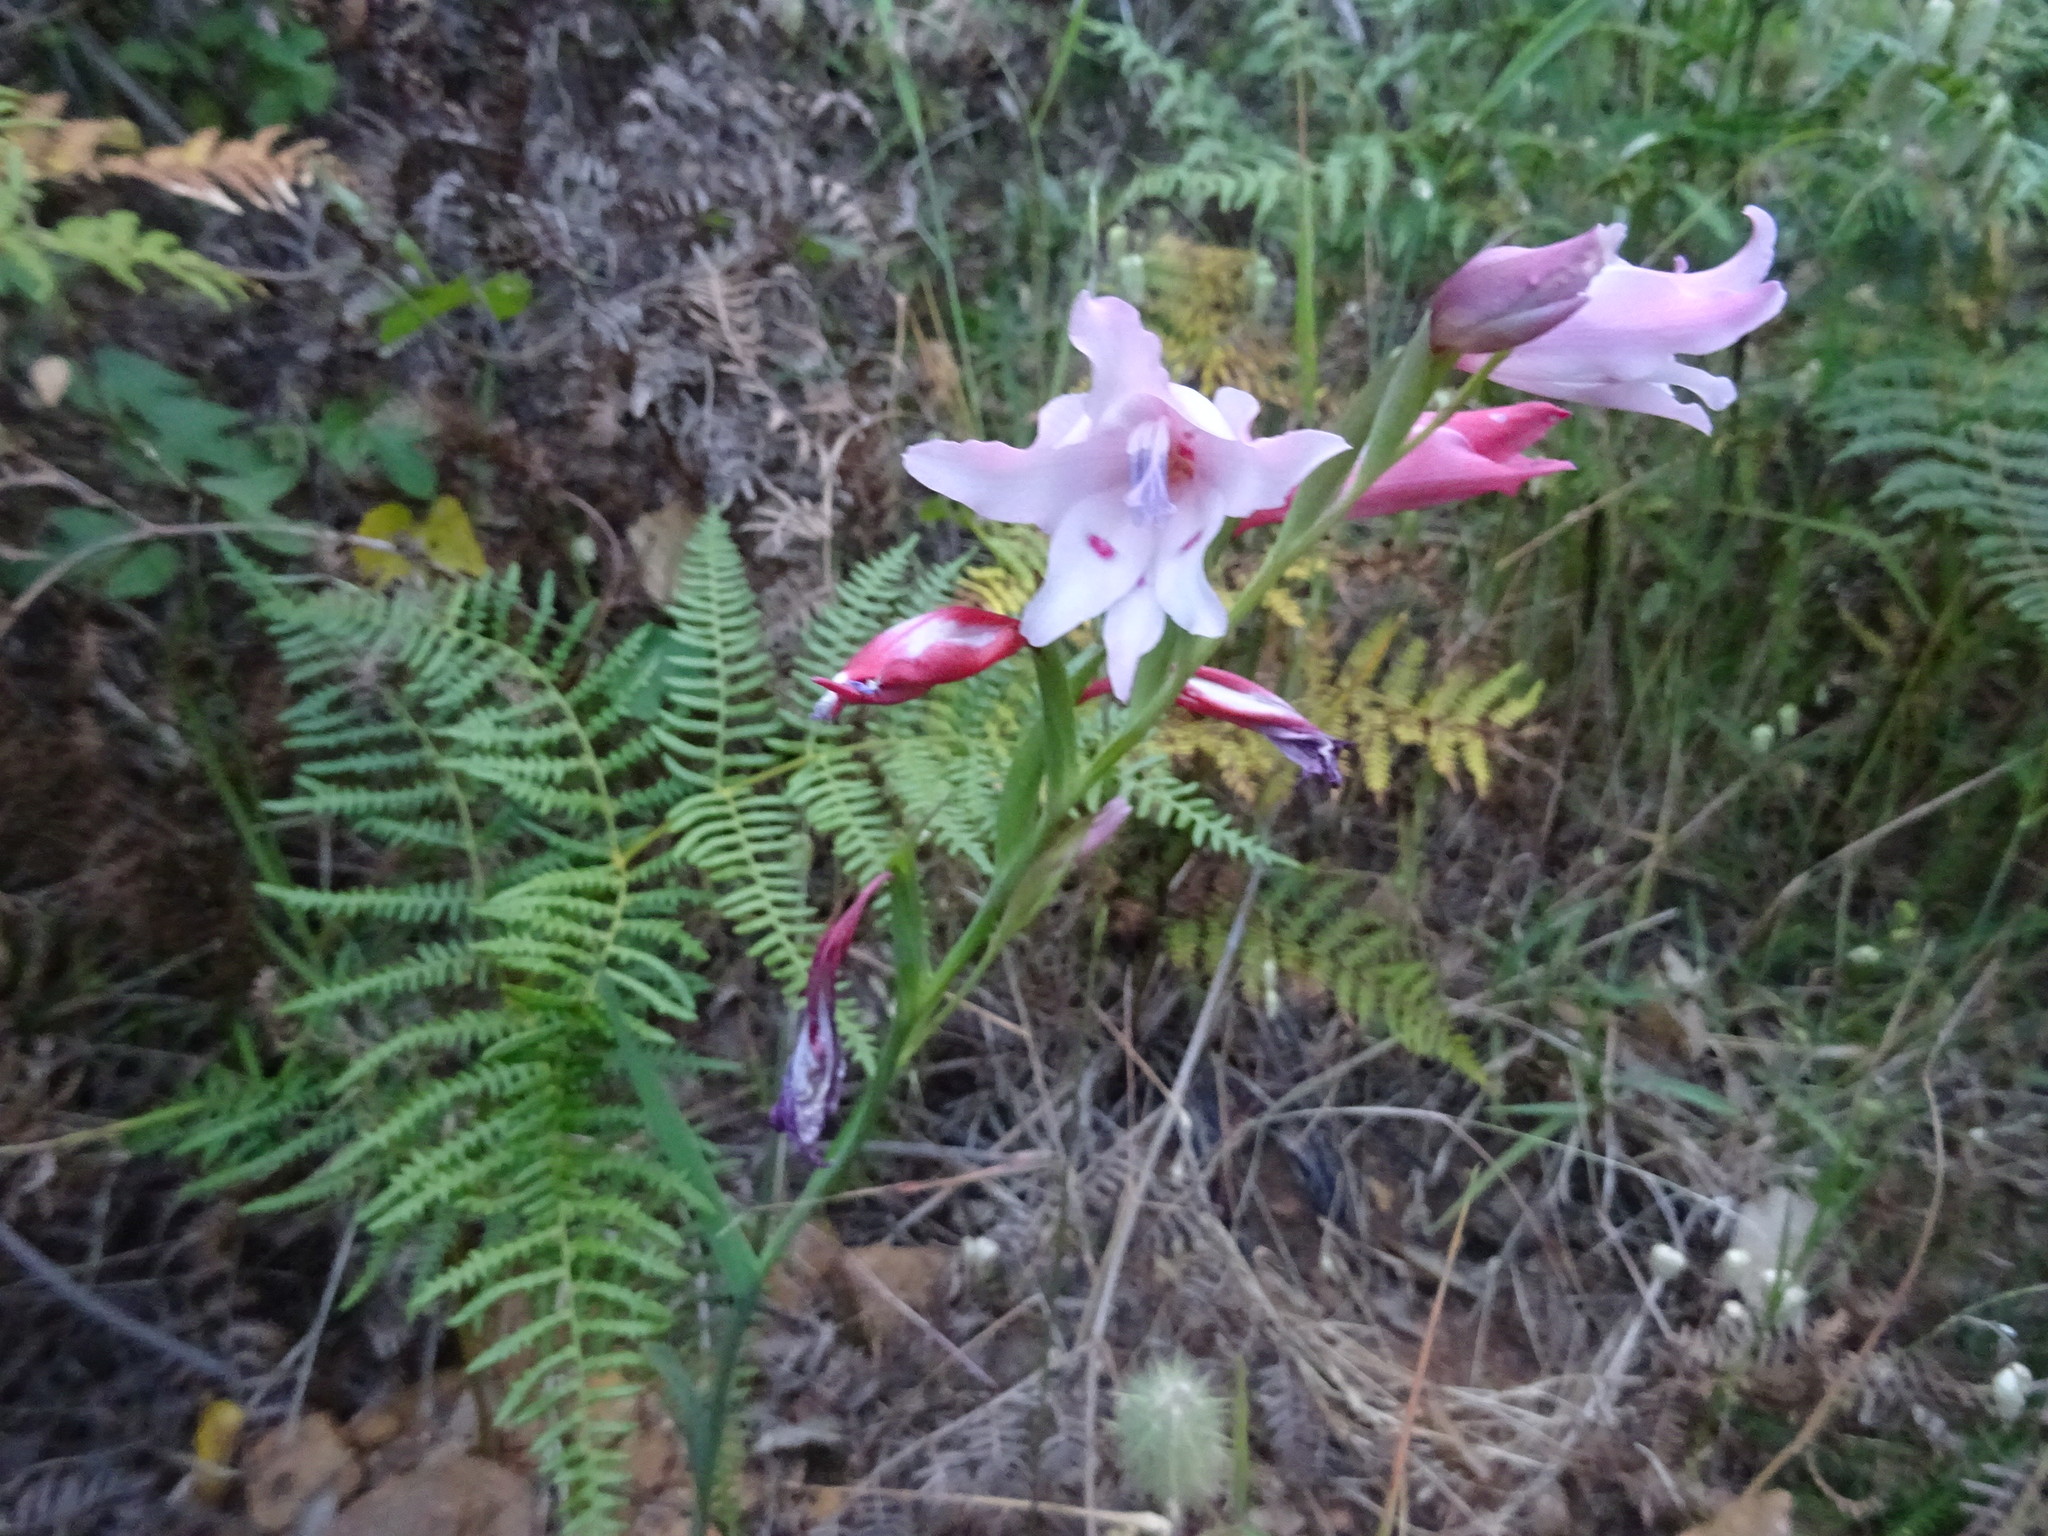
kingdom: Plantae
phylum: Tracheophyta
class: Liliopsida
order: Asparagales
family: Iridaceae
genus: Gladiolus
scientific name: Gladiolus carneus
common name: Painted-lady
